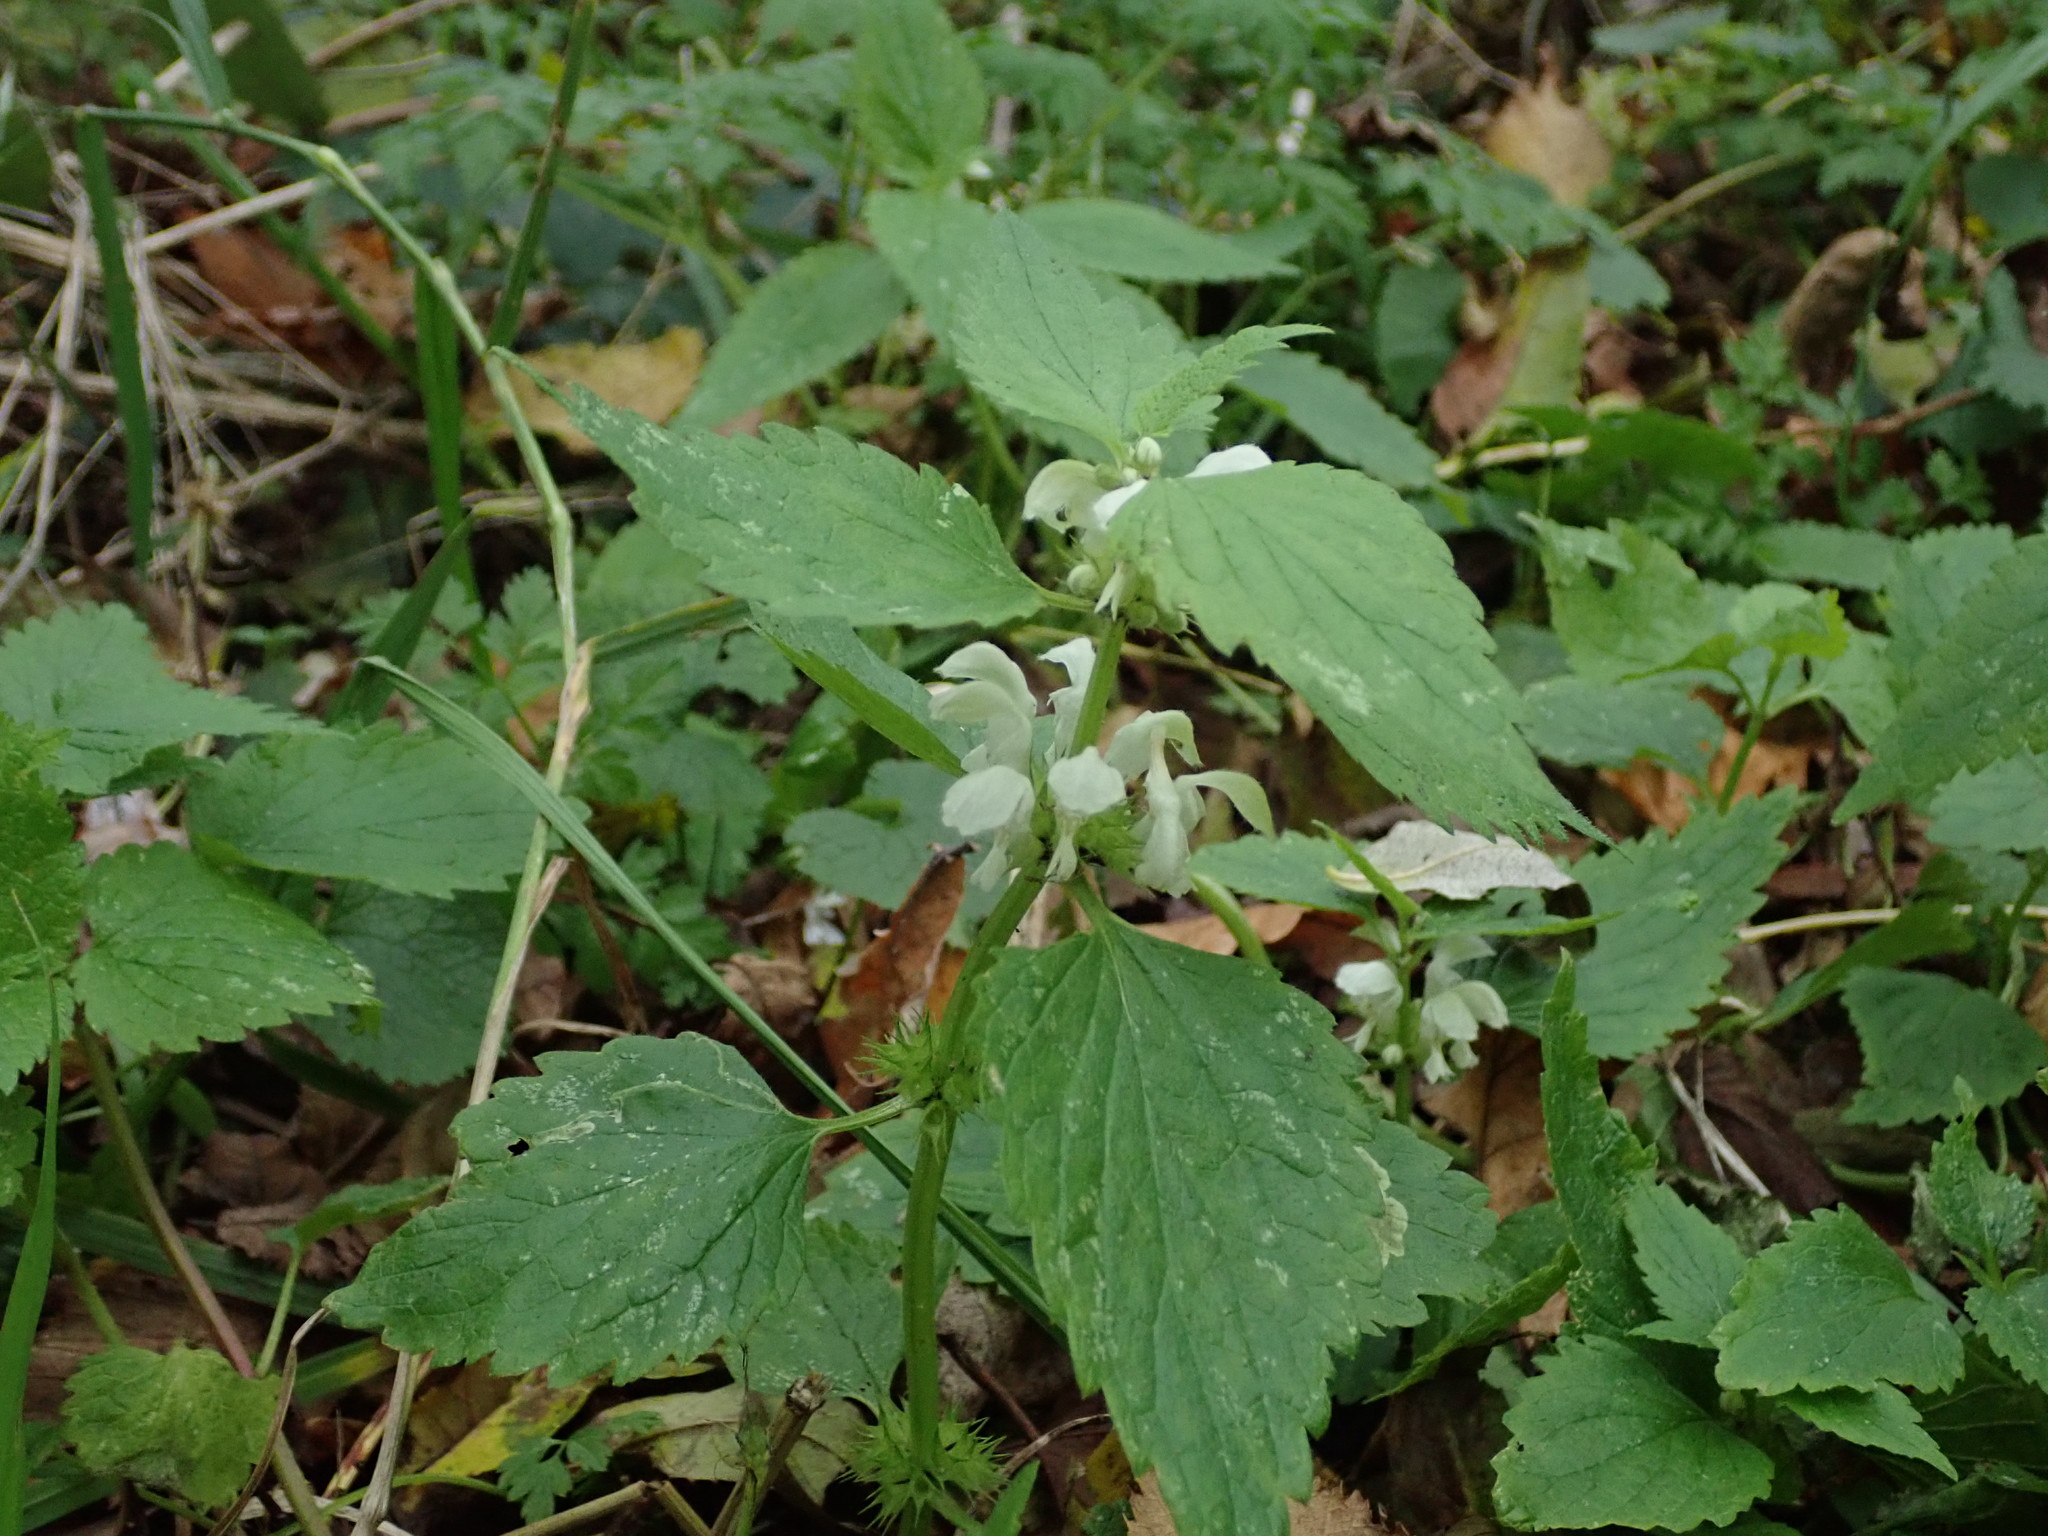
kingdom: Plantae
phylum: Tracheophyta
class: Magnoliopsida
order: Lamiales
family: Lamiaceae
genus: Lamium
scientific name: Lamium album
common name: White dead-nettle
